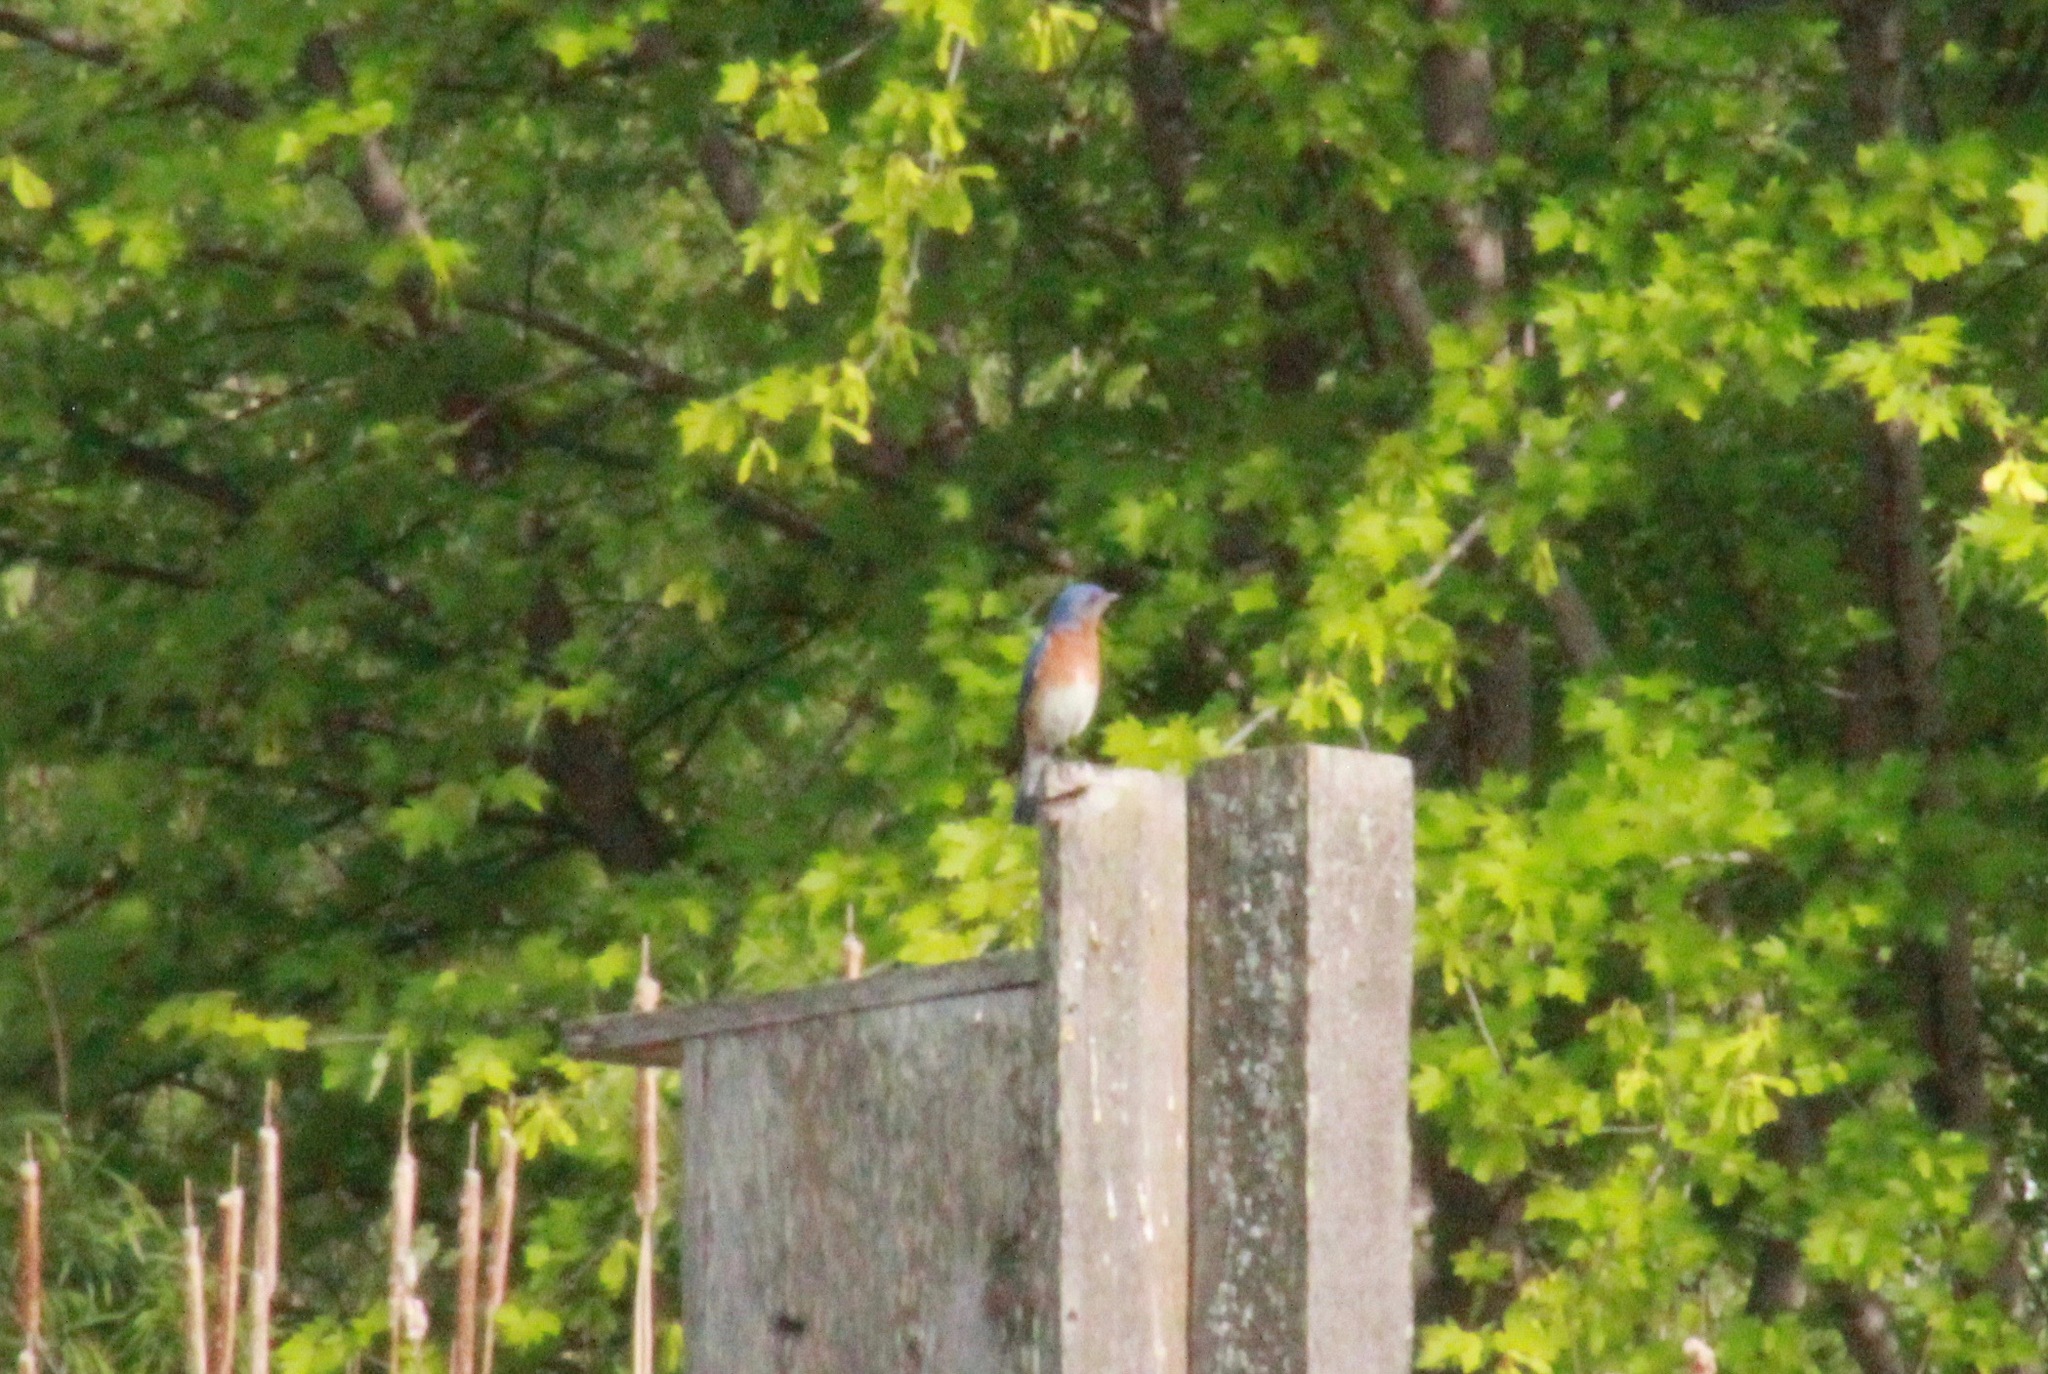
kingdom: Animalia
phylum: Chordata
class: Aves
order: Passeriformes
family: Turdidae
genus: Sialia
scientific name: Sialia sialis
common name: Eastern bluebird
